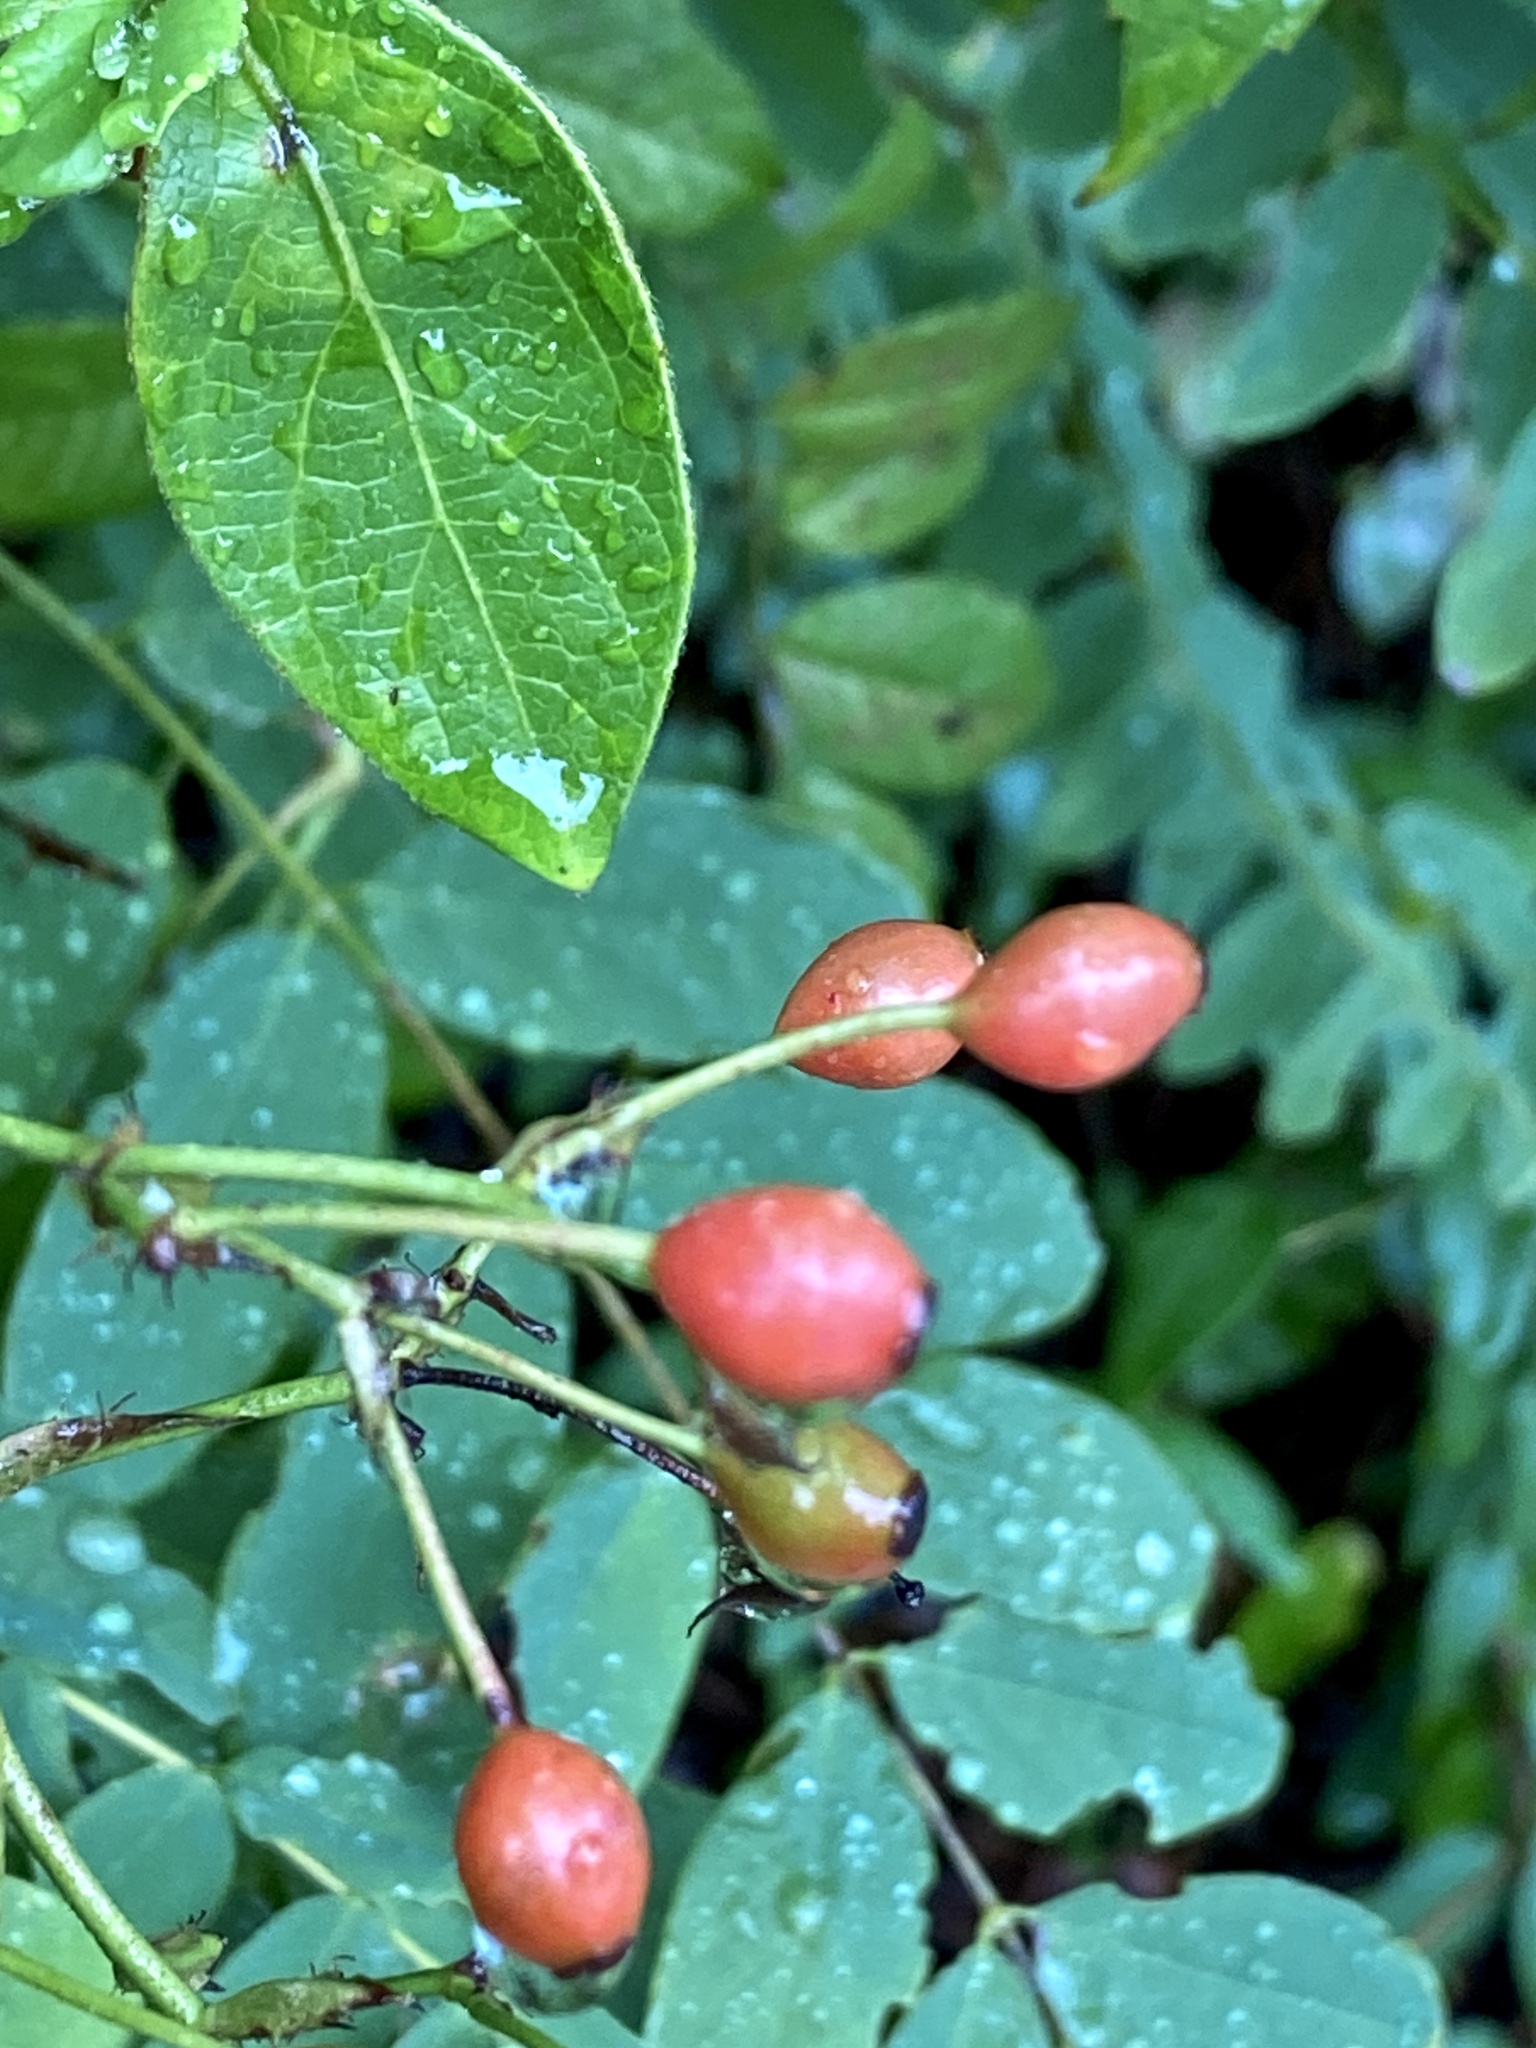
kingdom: Plantae
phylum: Tracheophyta
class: Magnoliopsida
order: Rosales
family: Rosaceae
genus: Rosa
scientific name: Rosa multiflora
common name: Multiflora rose
